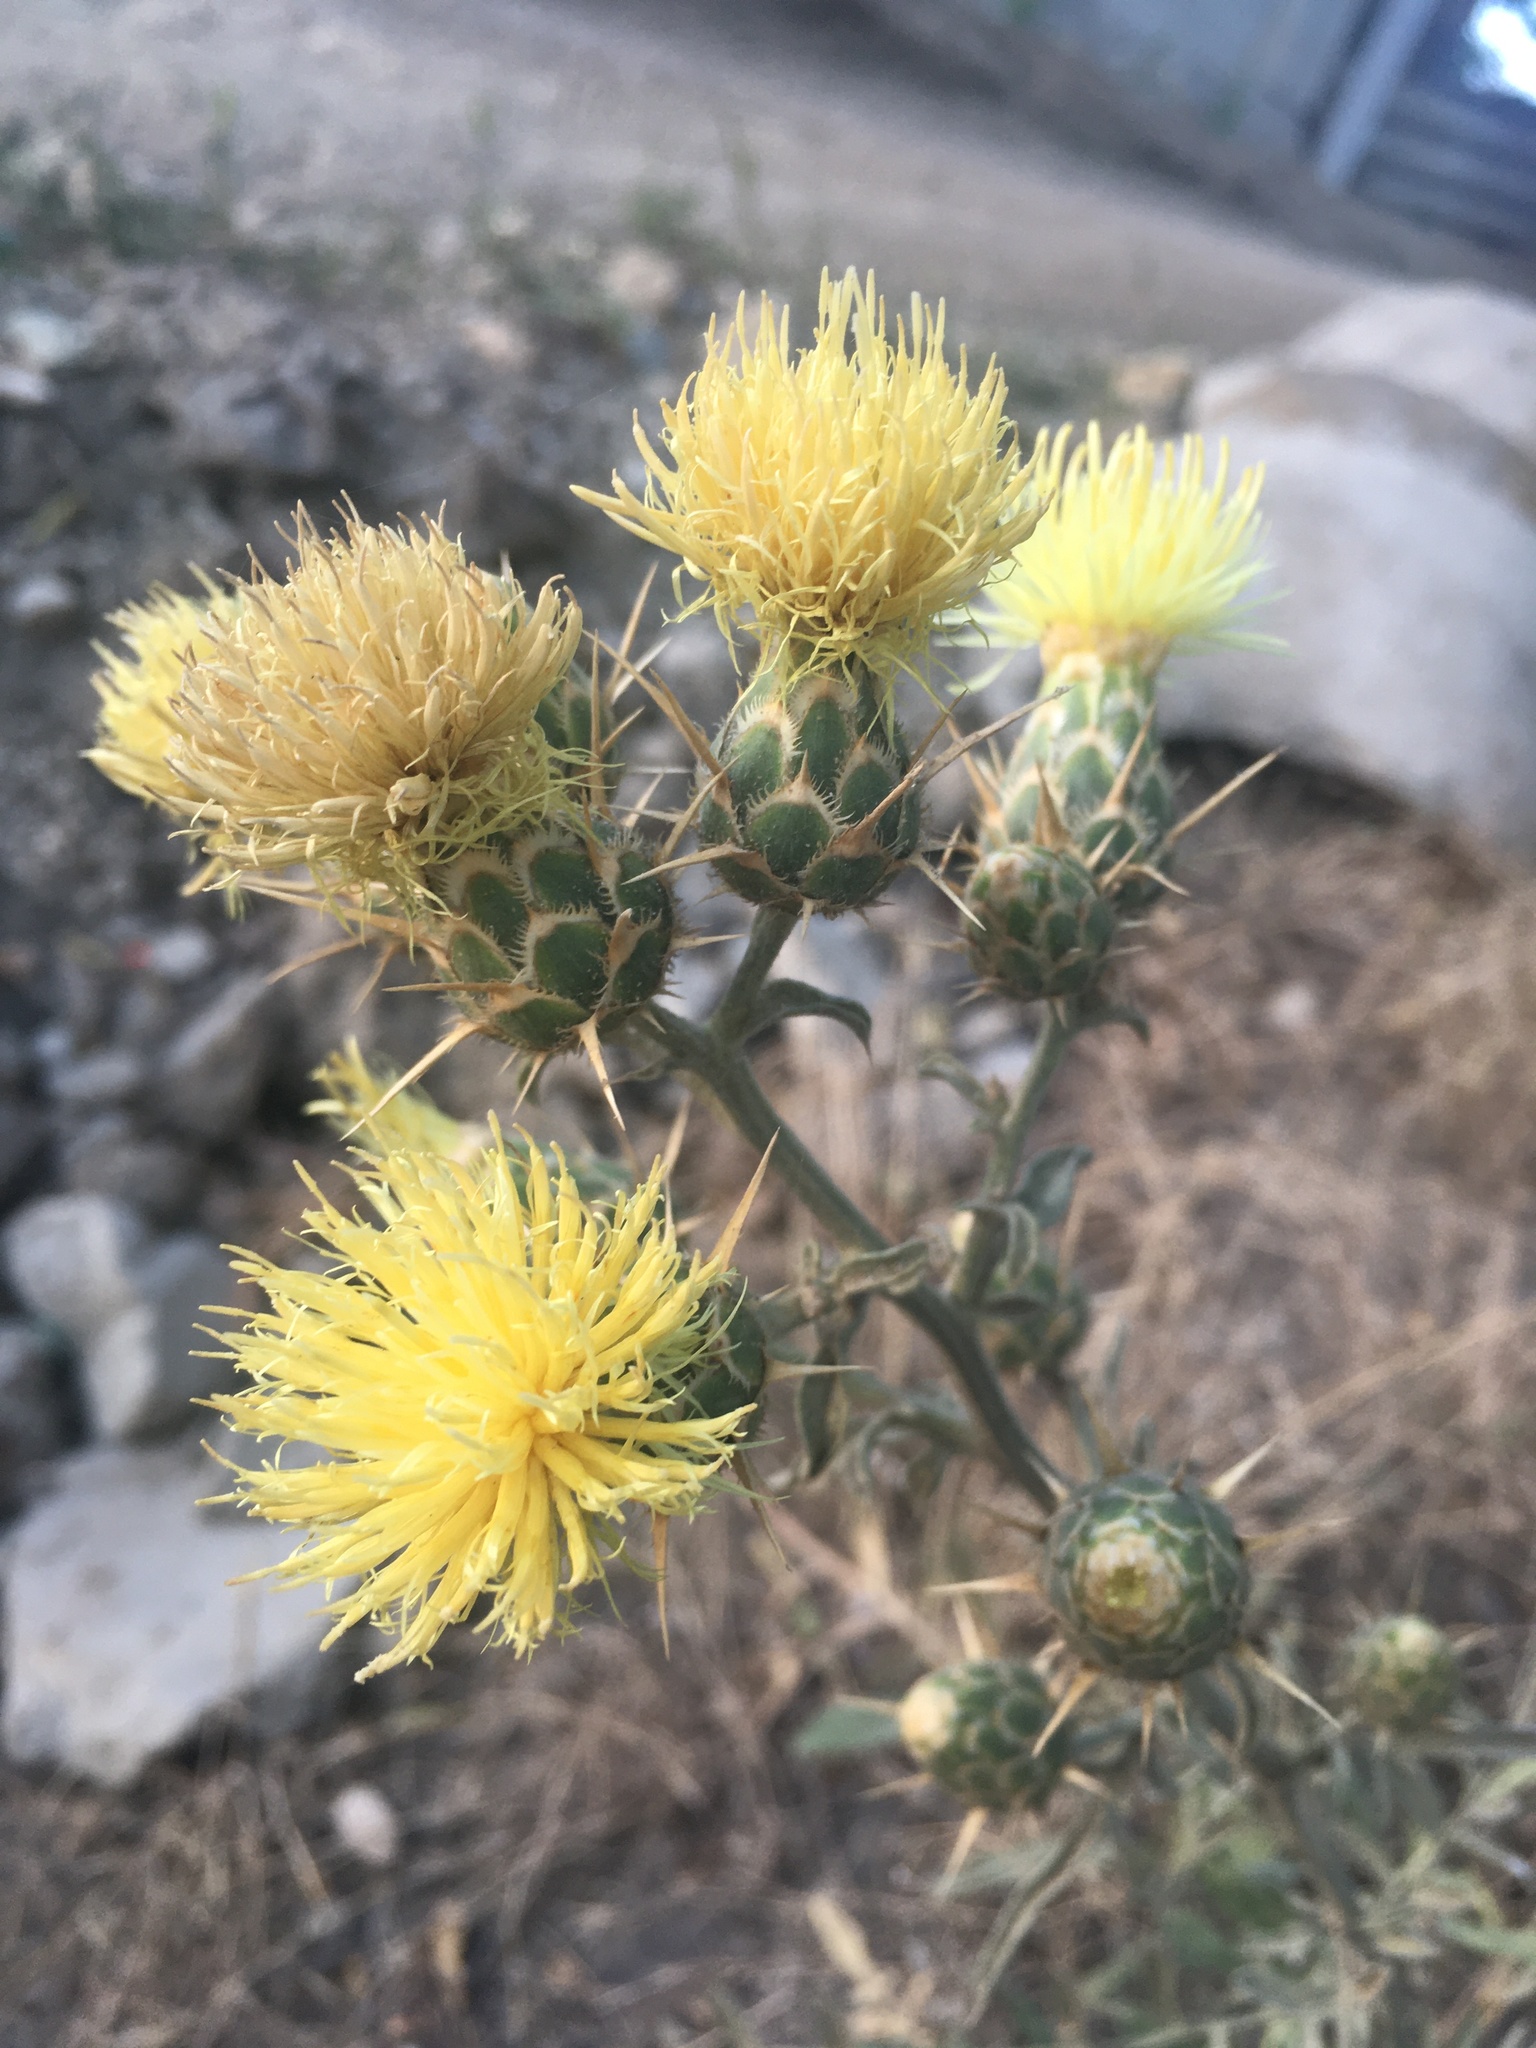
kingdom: Plantae
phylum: Tracheophyta
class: Magnoliopsida
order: Asterales
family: Asteraceae
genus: Centaurea
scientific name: Centaurea salonitana
